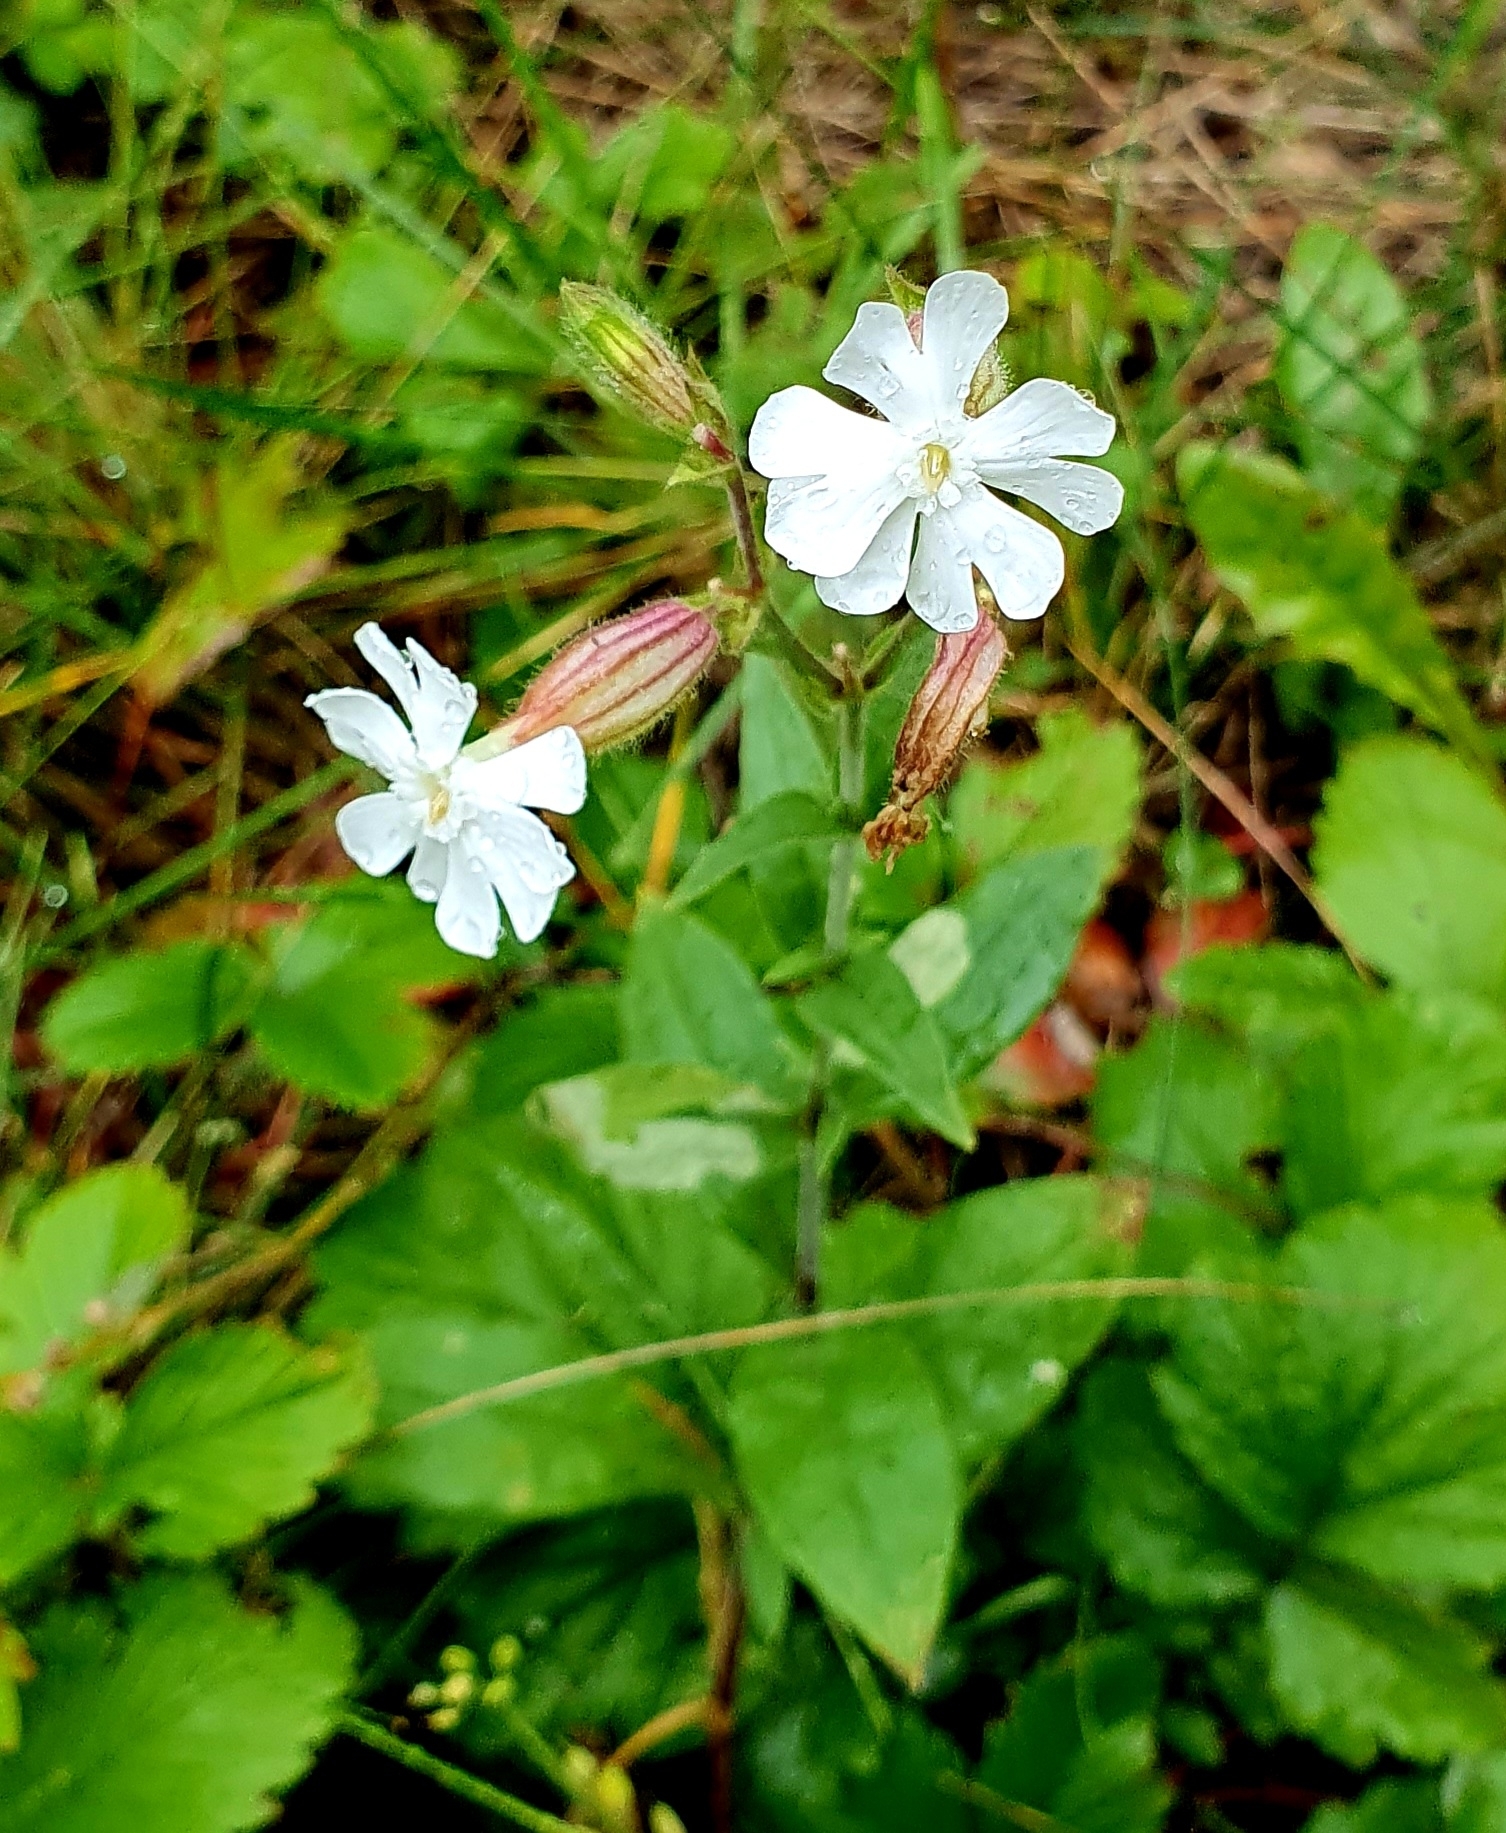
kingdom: Plantae
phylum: Tracheophyta
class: Magnoliopsida
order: Caryophyllales
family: Caryophyllaceae
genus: Silene
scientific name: Silene latifolia
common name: White campion
